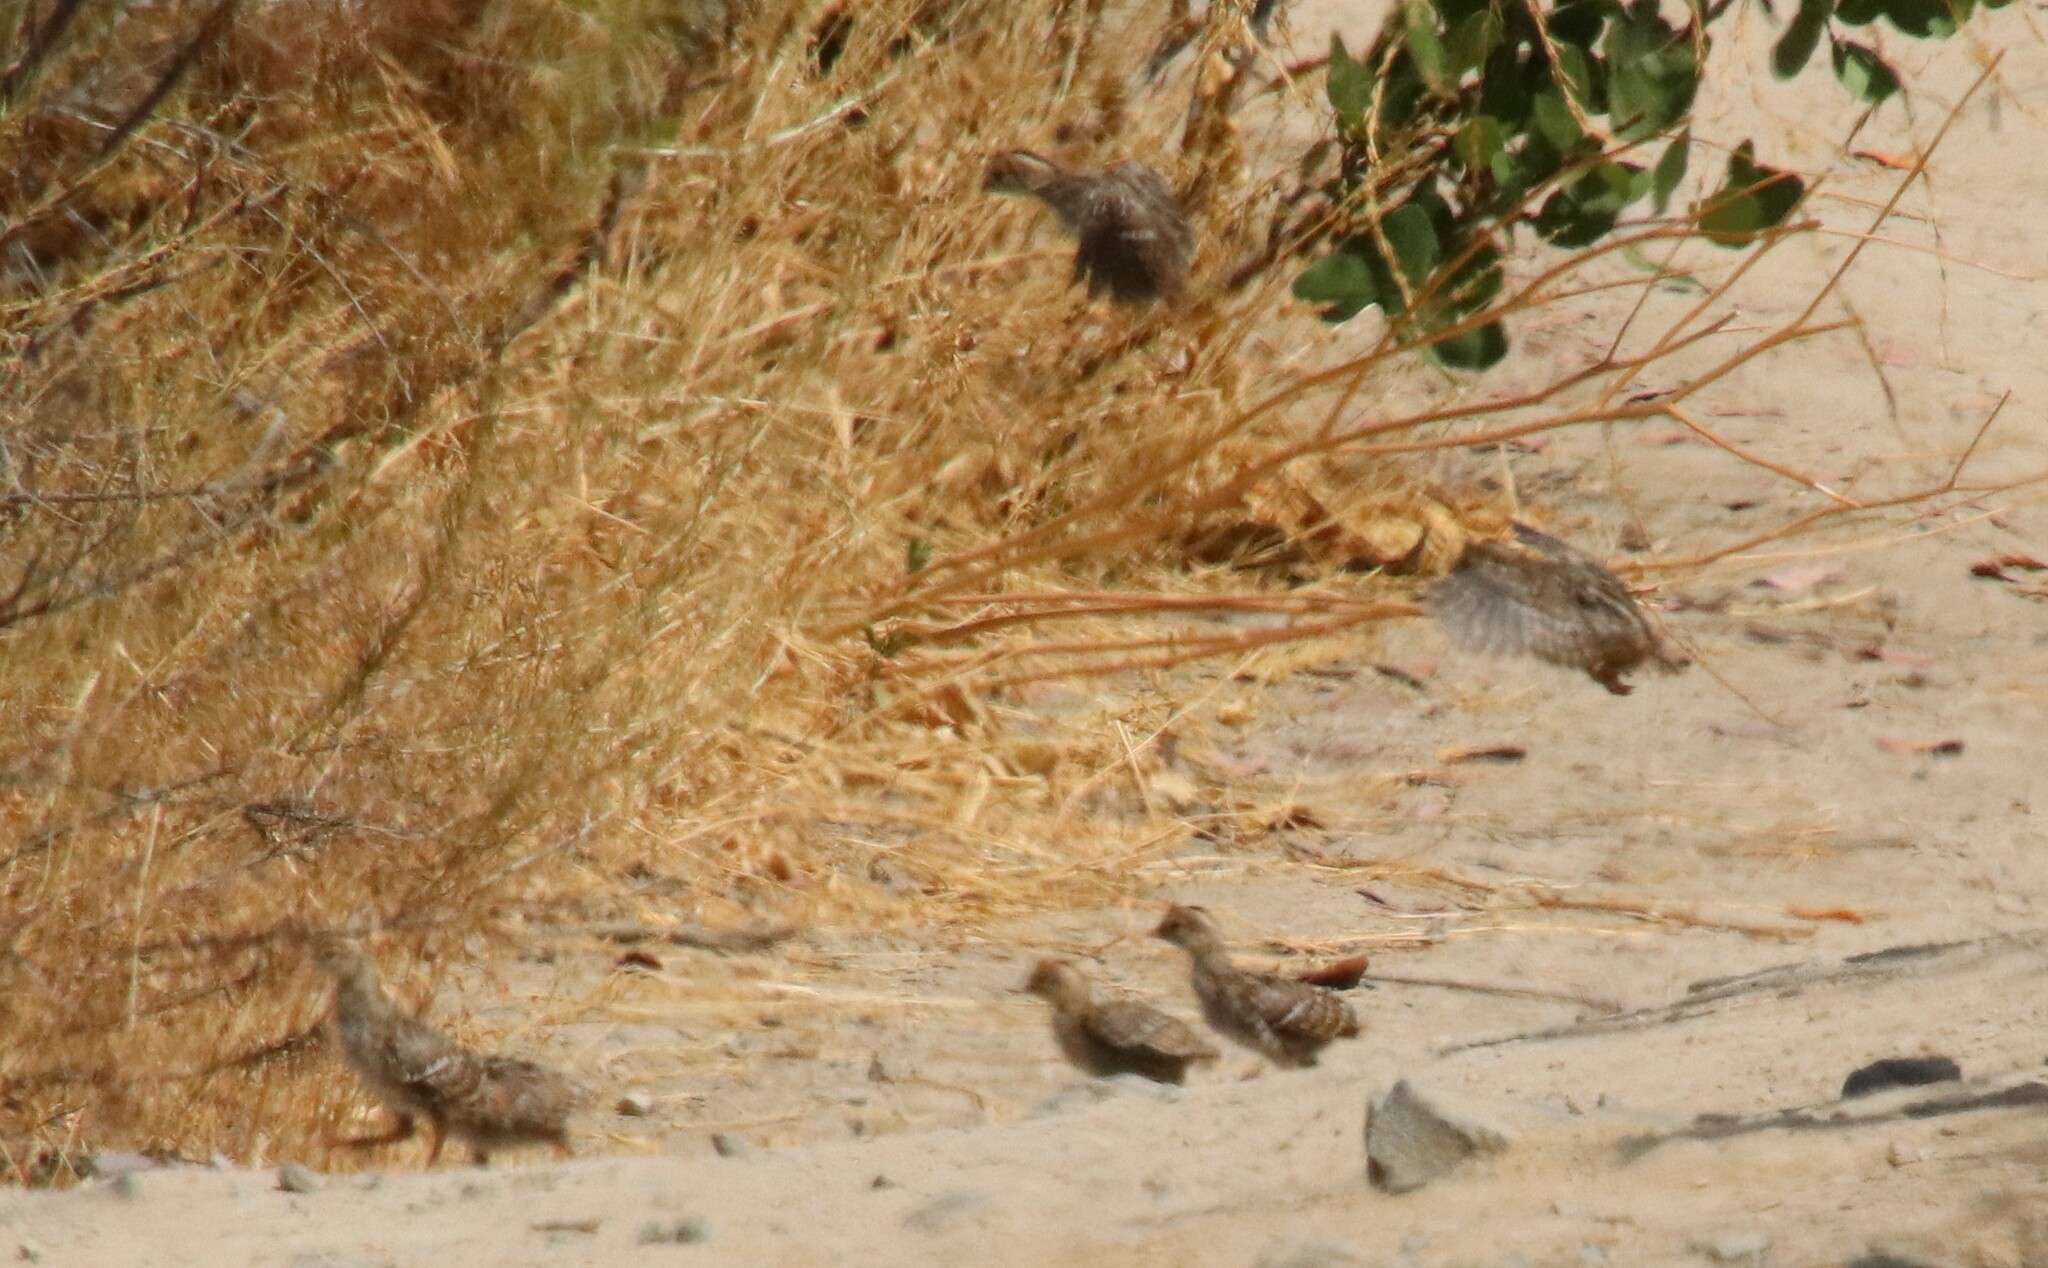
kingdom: Animalia
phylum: Chordata
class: Aves
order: Galliformes
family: Odontophoridae
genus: Callipepla
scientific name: Callipepla californica
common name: California quail
